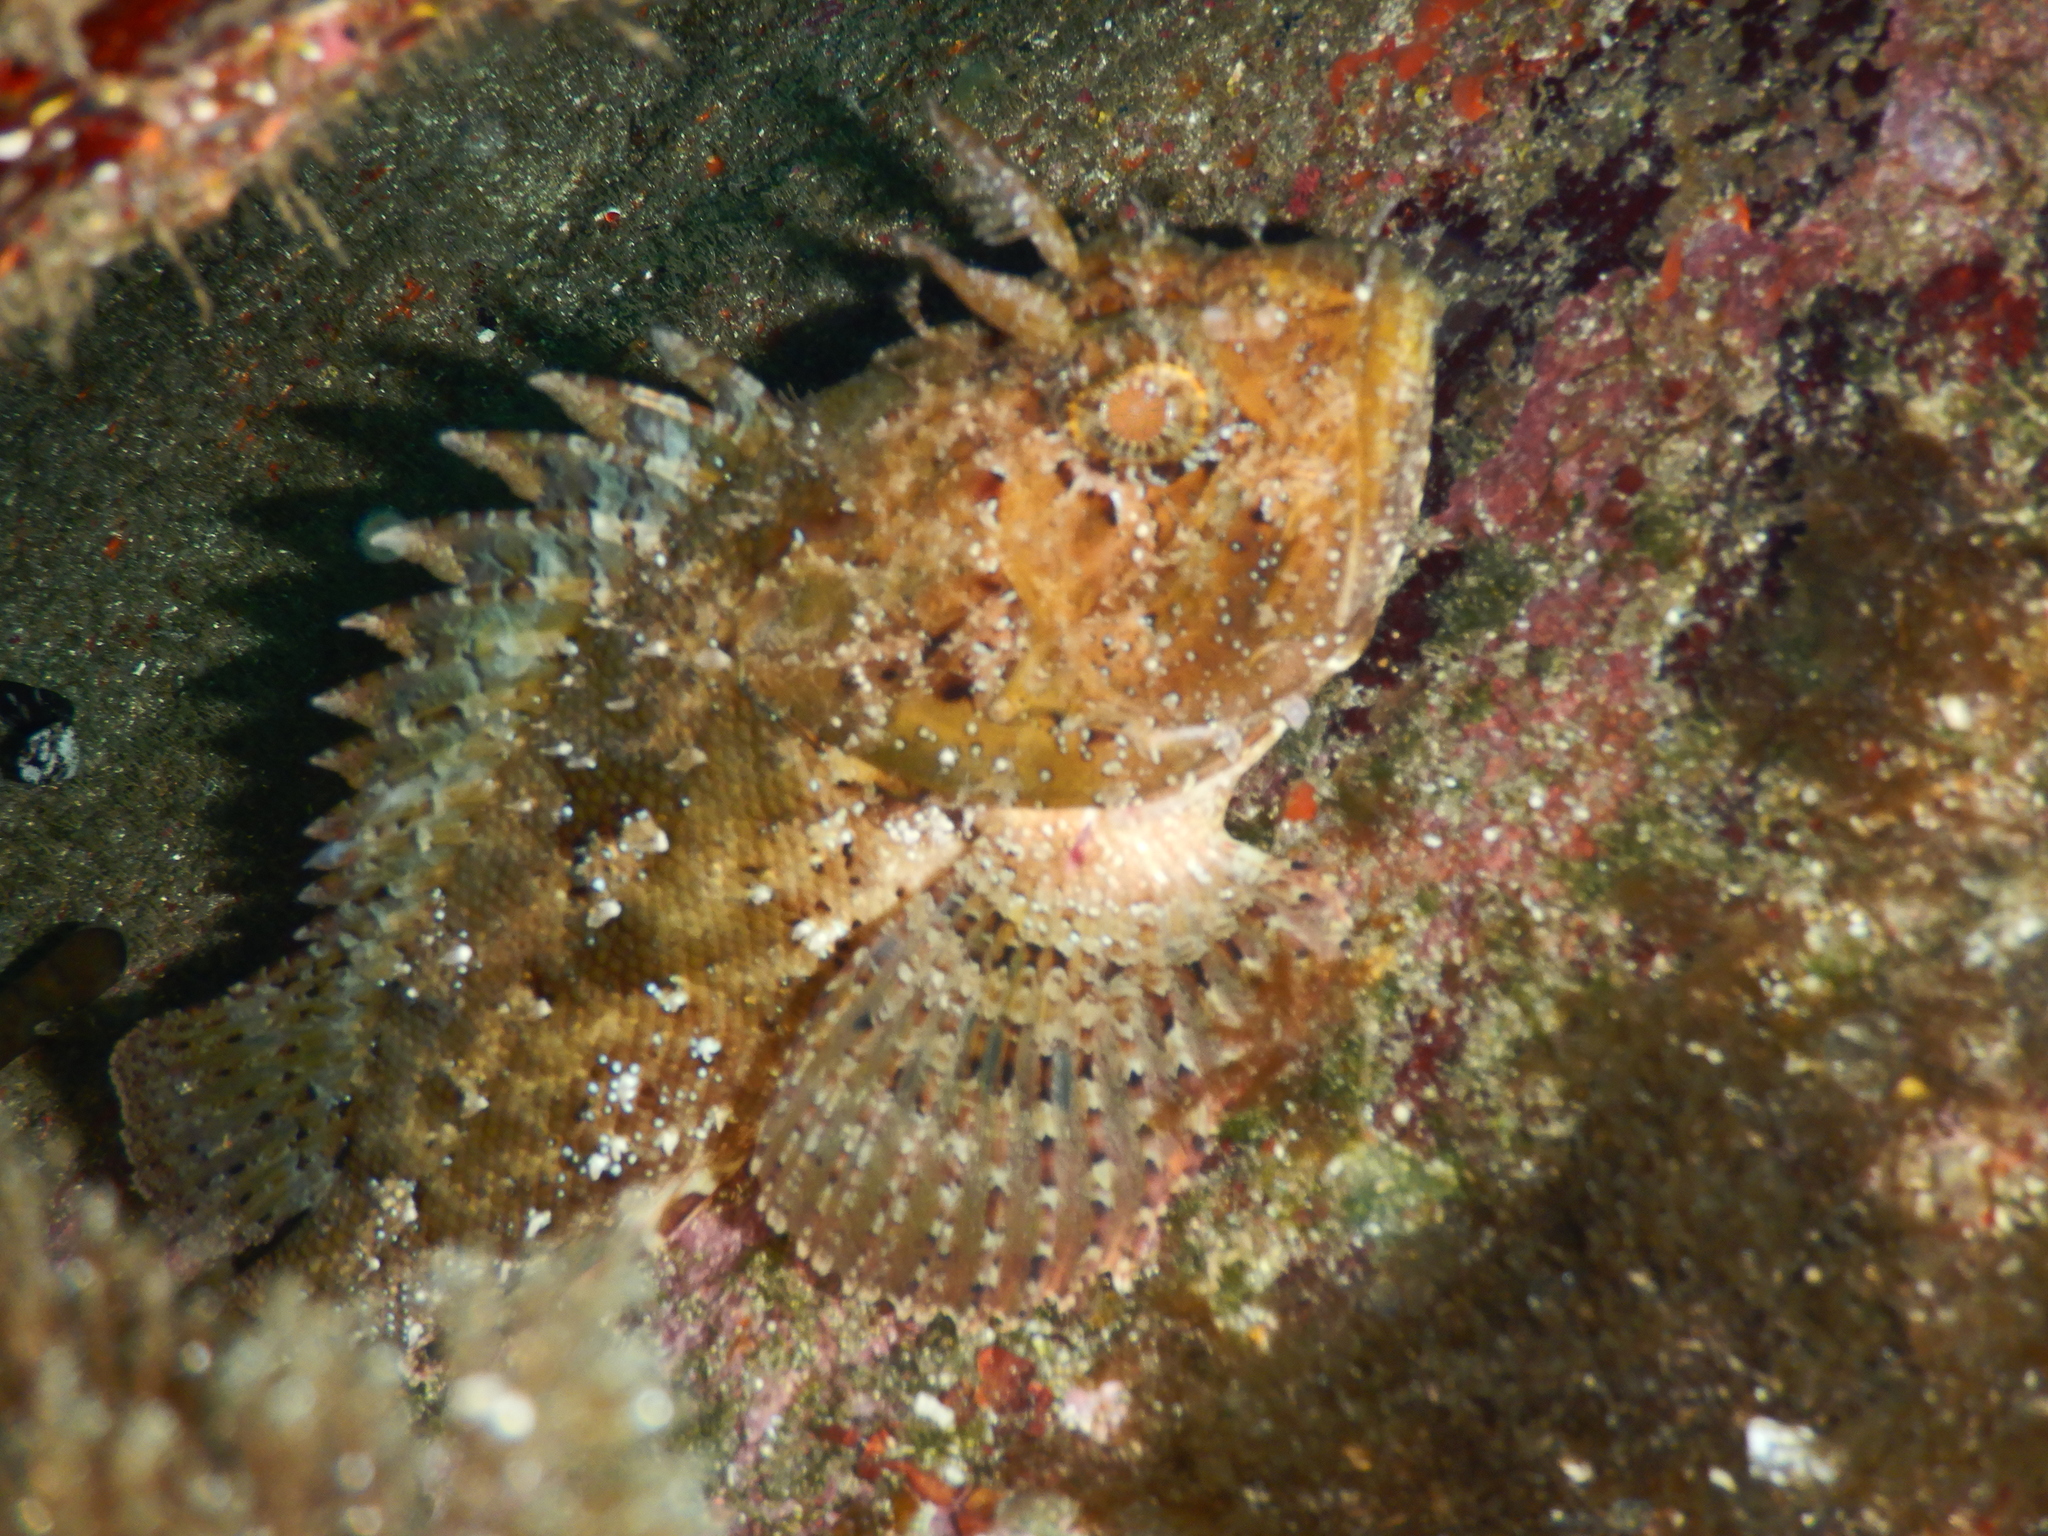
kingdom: Animalia
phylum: Chordata
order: Scorpaeniformes
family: Scorpaenidae
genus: Scorpaena
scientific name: Scorpaena porcus
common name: Black scorpionfish
